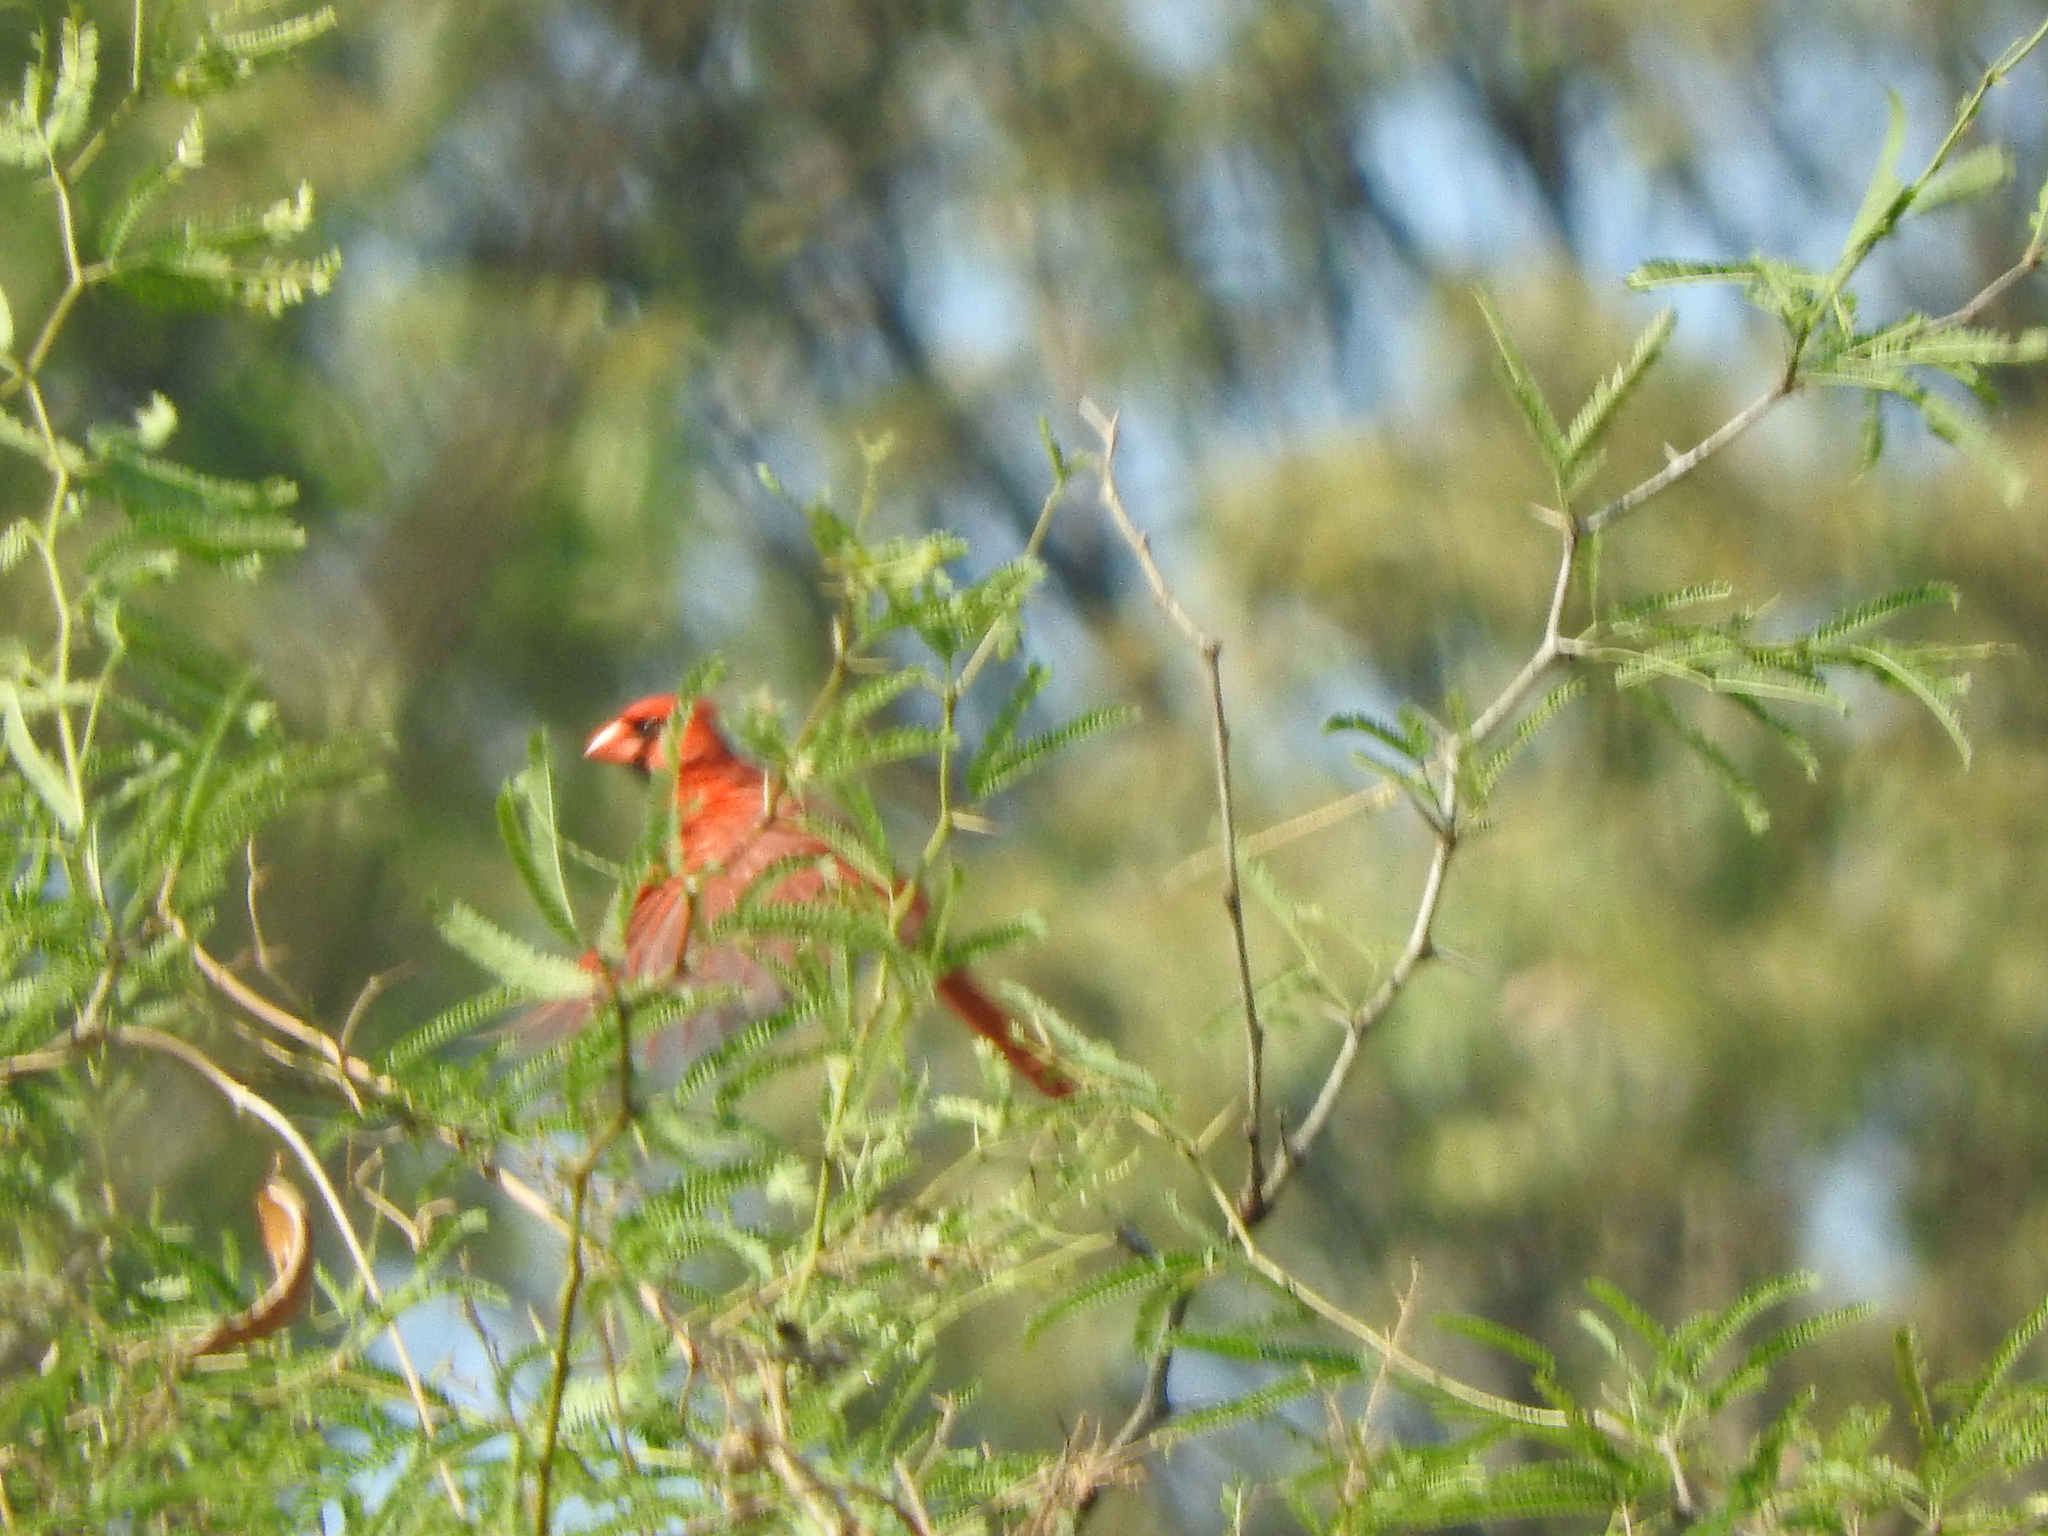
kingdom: Animalia
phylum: Chordata
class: Aves
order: Passeriformes
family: Cardinalidae
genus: Cardinalis
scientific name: Cardinalis cardinalis
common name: Northern cardinal
